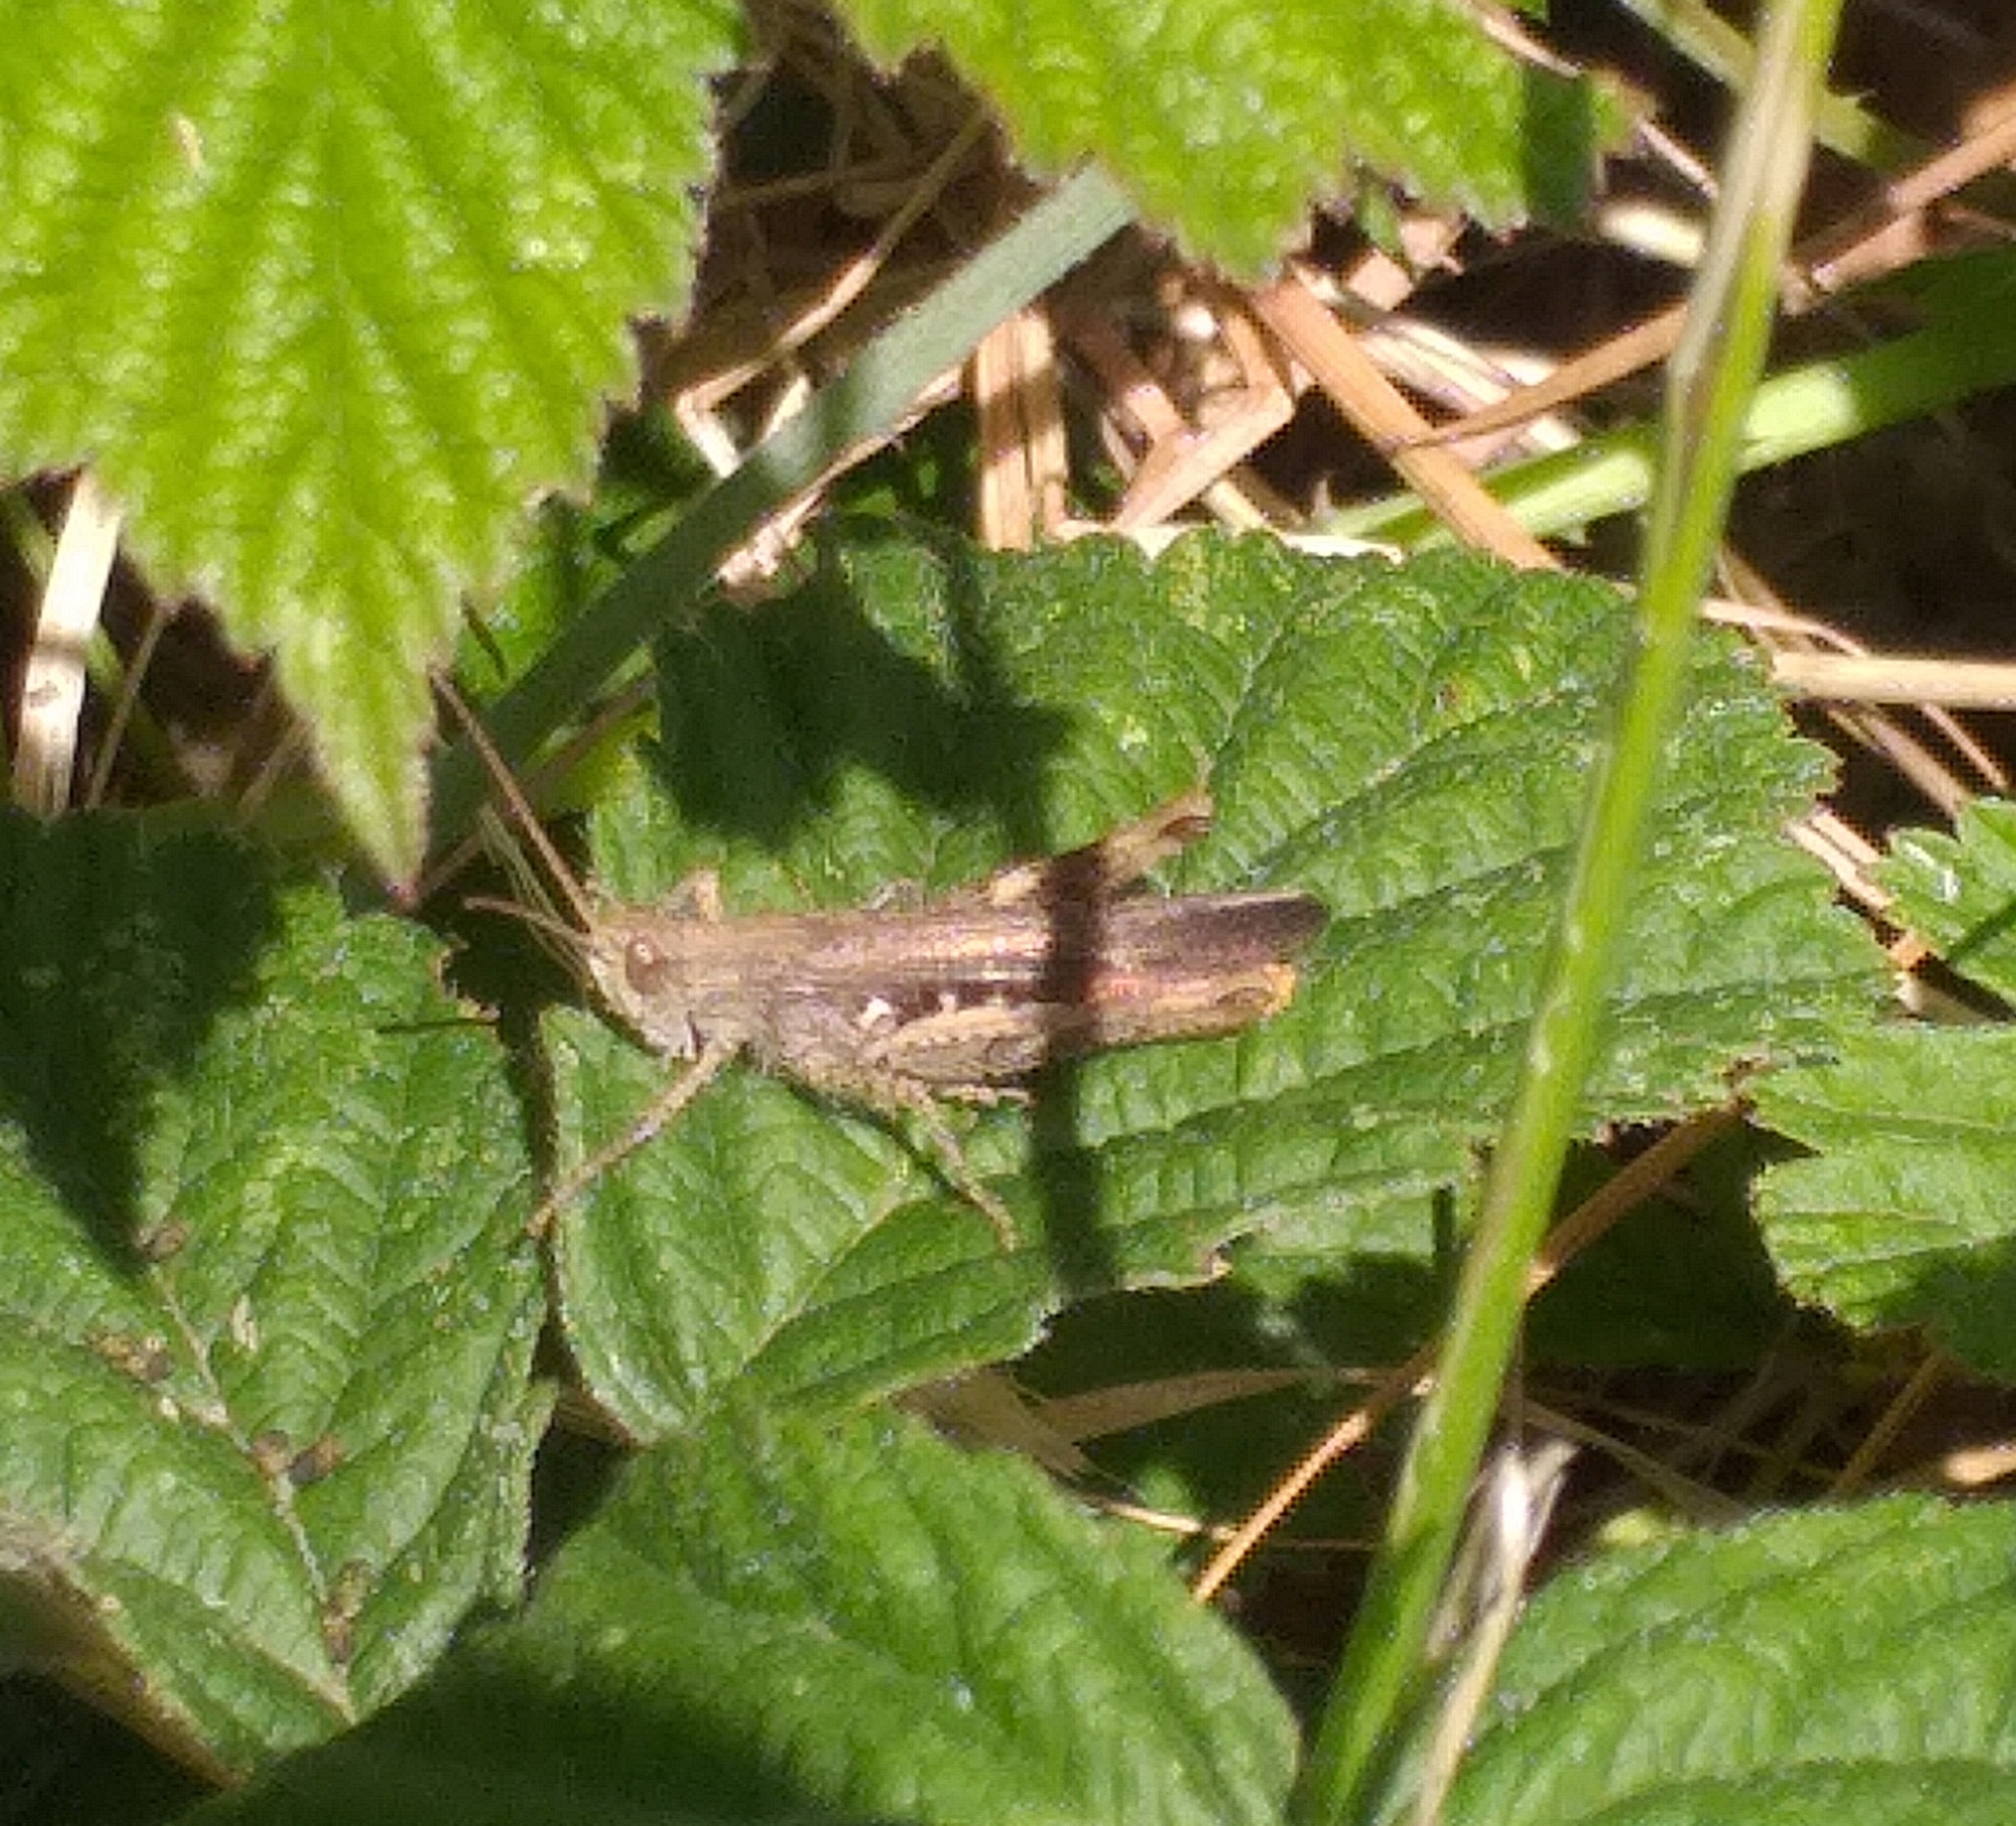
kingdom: Animalia
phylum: Arthropoda
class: Insecta
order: Orthoptera
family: Acrididae
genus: Chorthippus
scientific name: Chorthippus brunneus
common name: Field grasshopper
